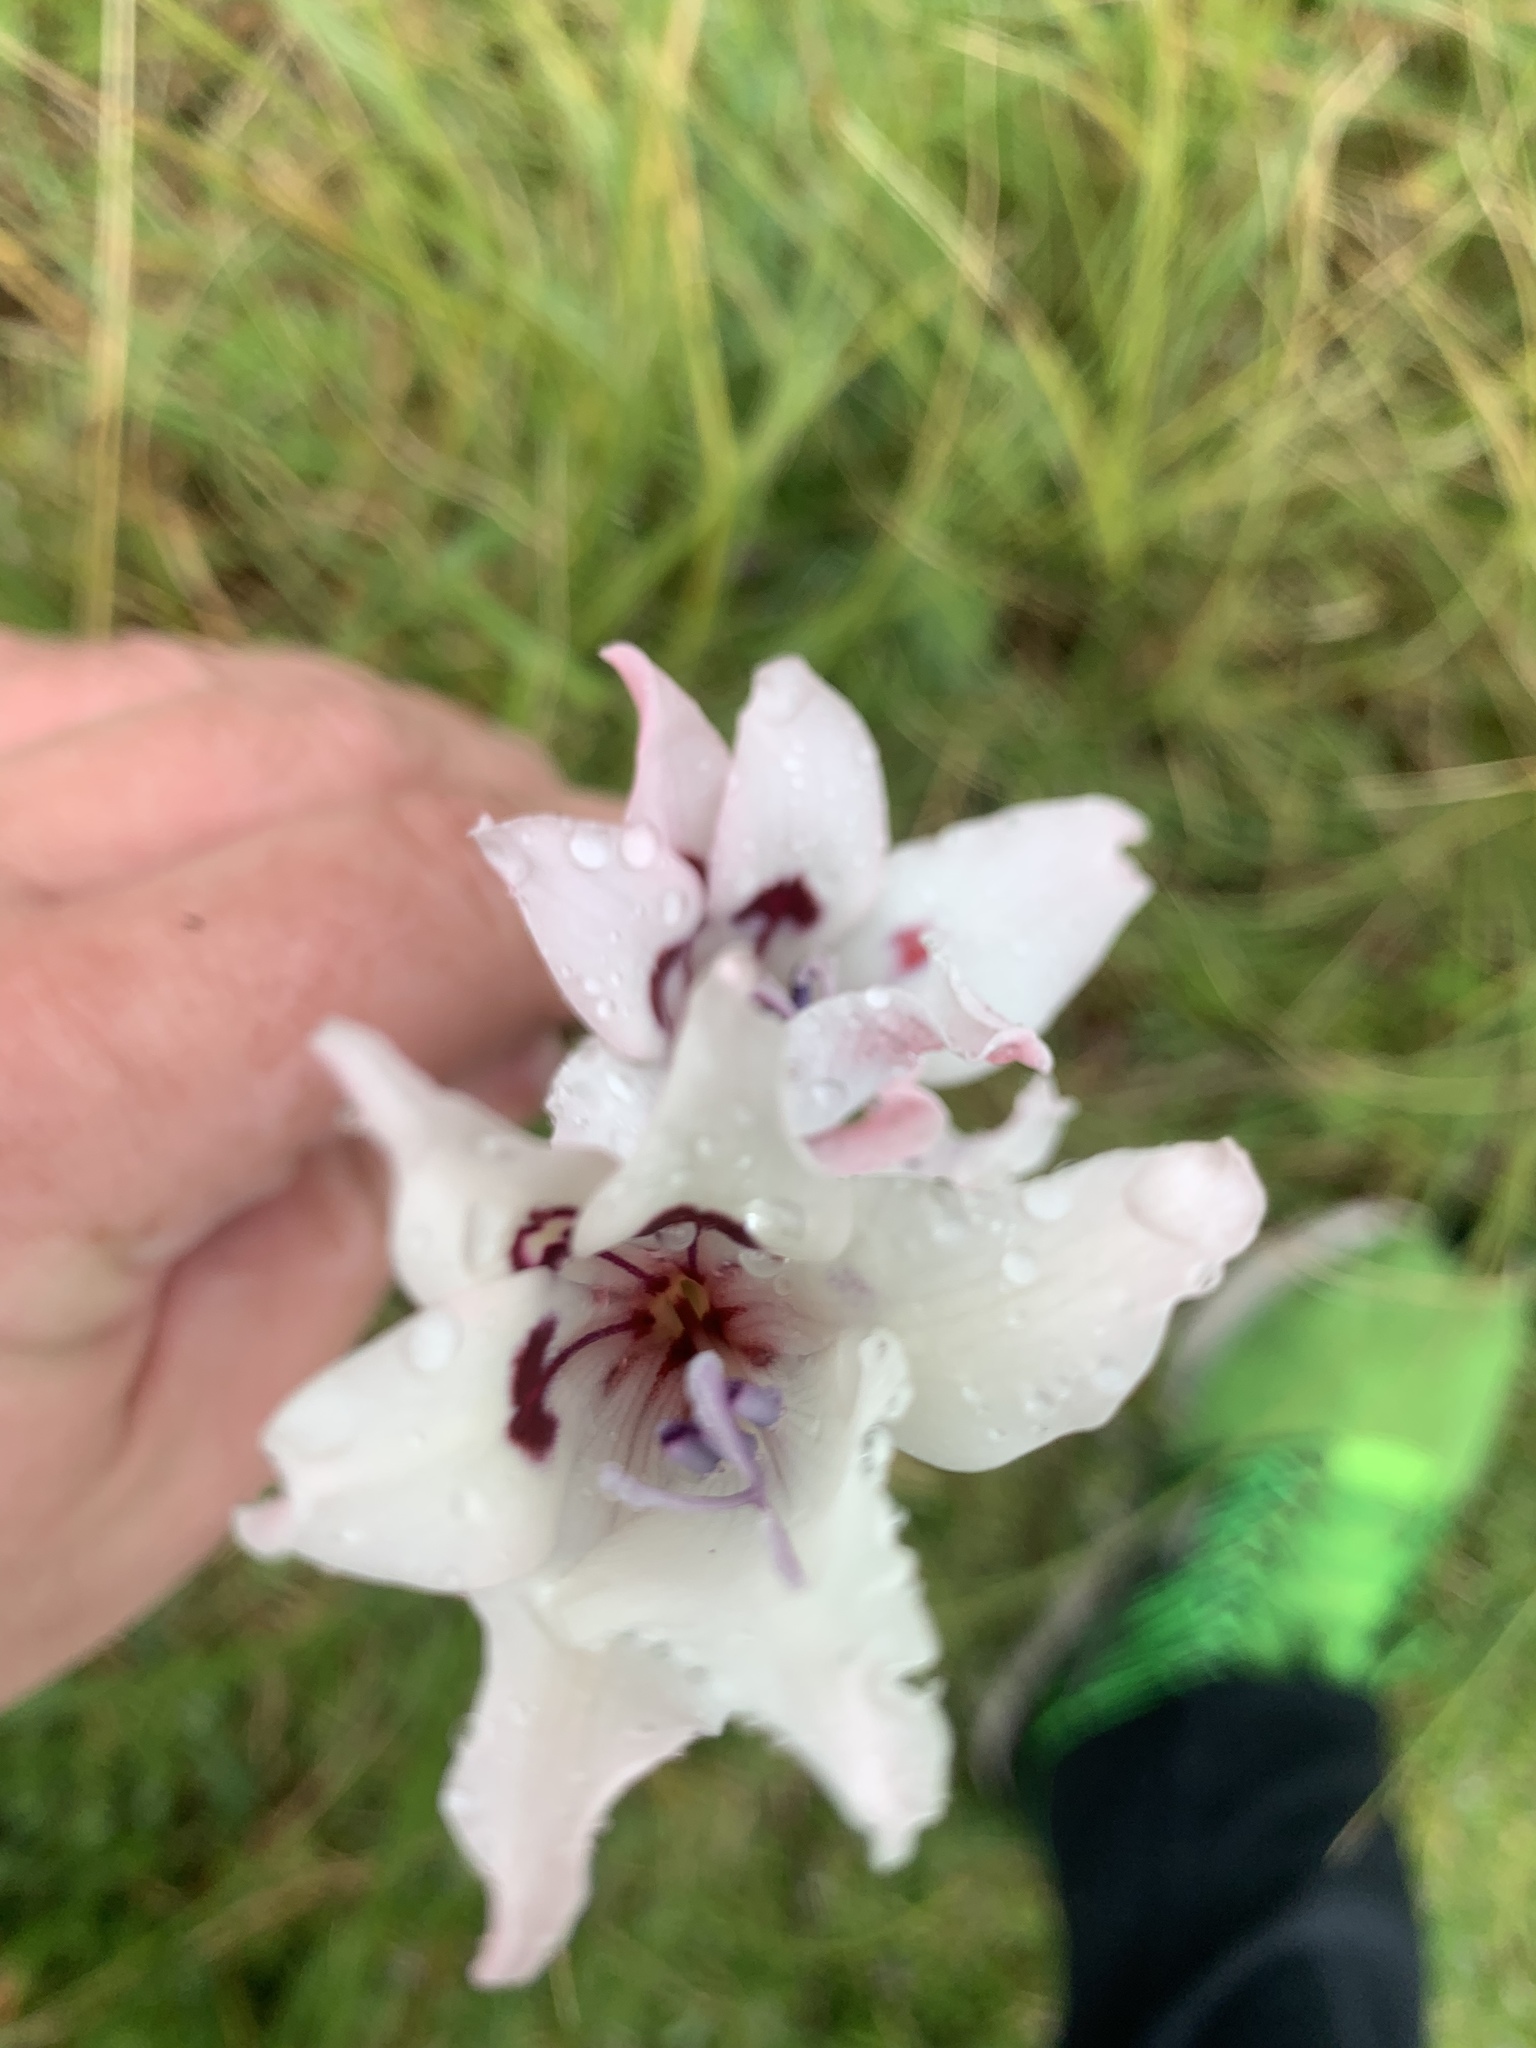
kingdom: Plantae
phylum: Tracheophyta
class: Liliopsida
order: Asparagales
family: Iridaceae
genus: Gladiolus
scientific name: Gladiolus carneus
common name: Painted-lady
